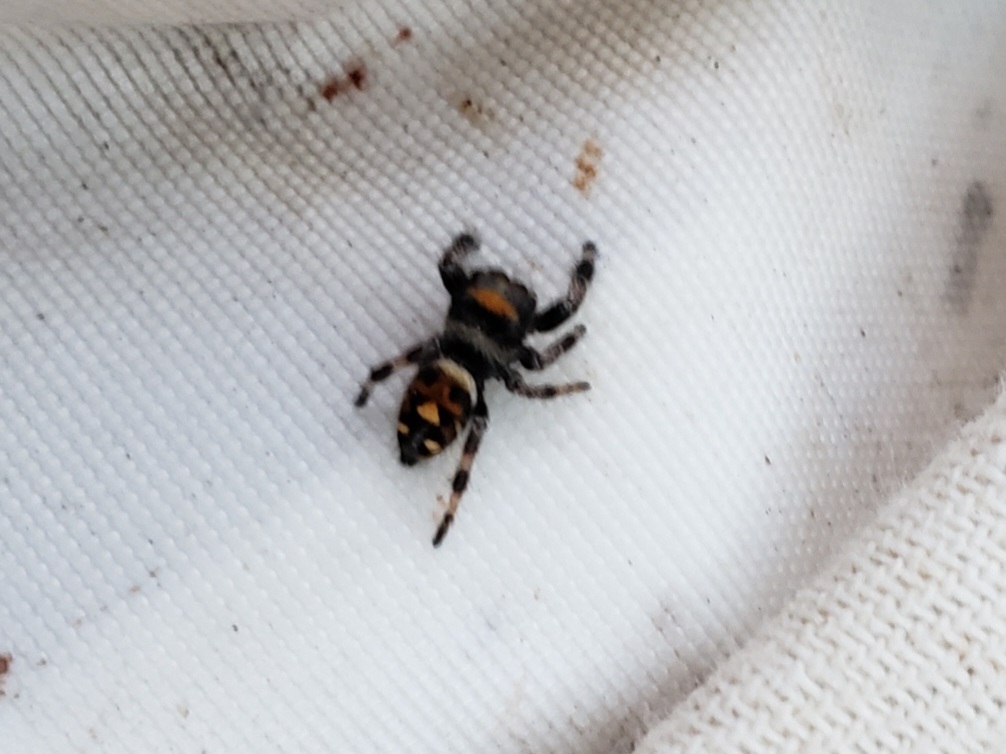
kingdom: Animalia
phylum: Arthropoda
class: Arachnida
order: Araneae
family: Salticidae
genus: Phidippus
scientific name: Phidippus regius
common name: Regal jumper
